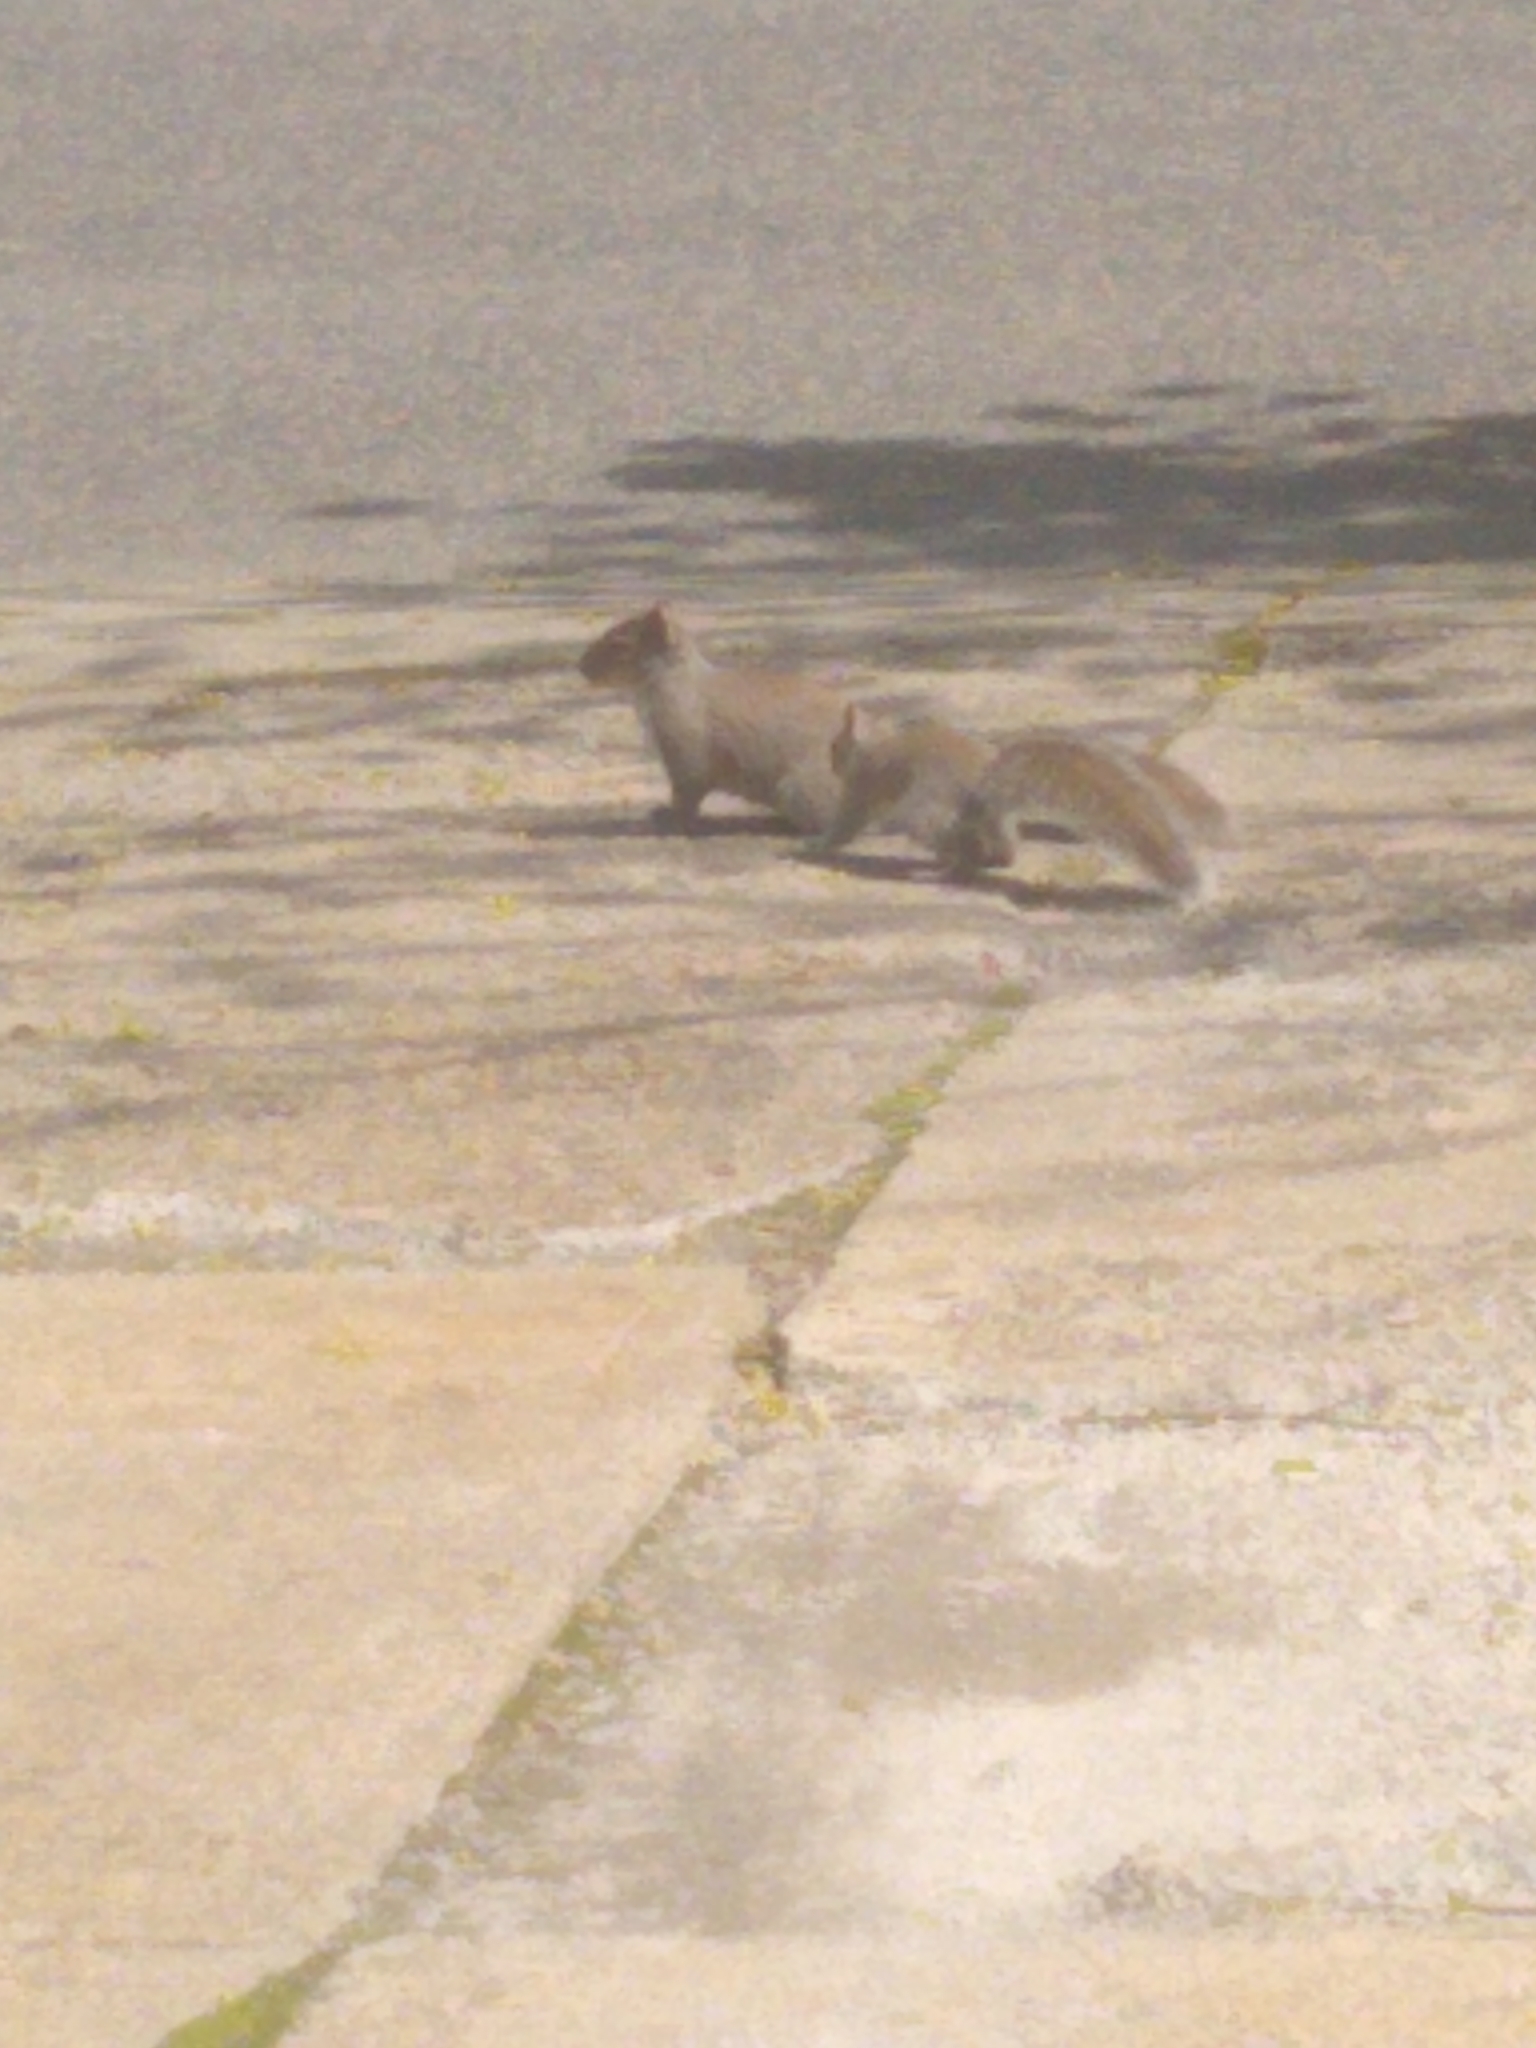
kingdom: Animalia
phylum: Chordata
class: Mammalia
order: Rodentia
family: Sciuridae
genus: Sciurus
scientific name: Sciurus carolinensis
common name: Eastern gray squirrel
